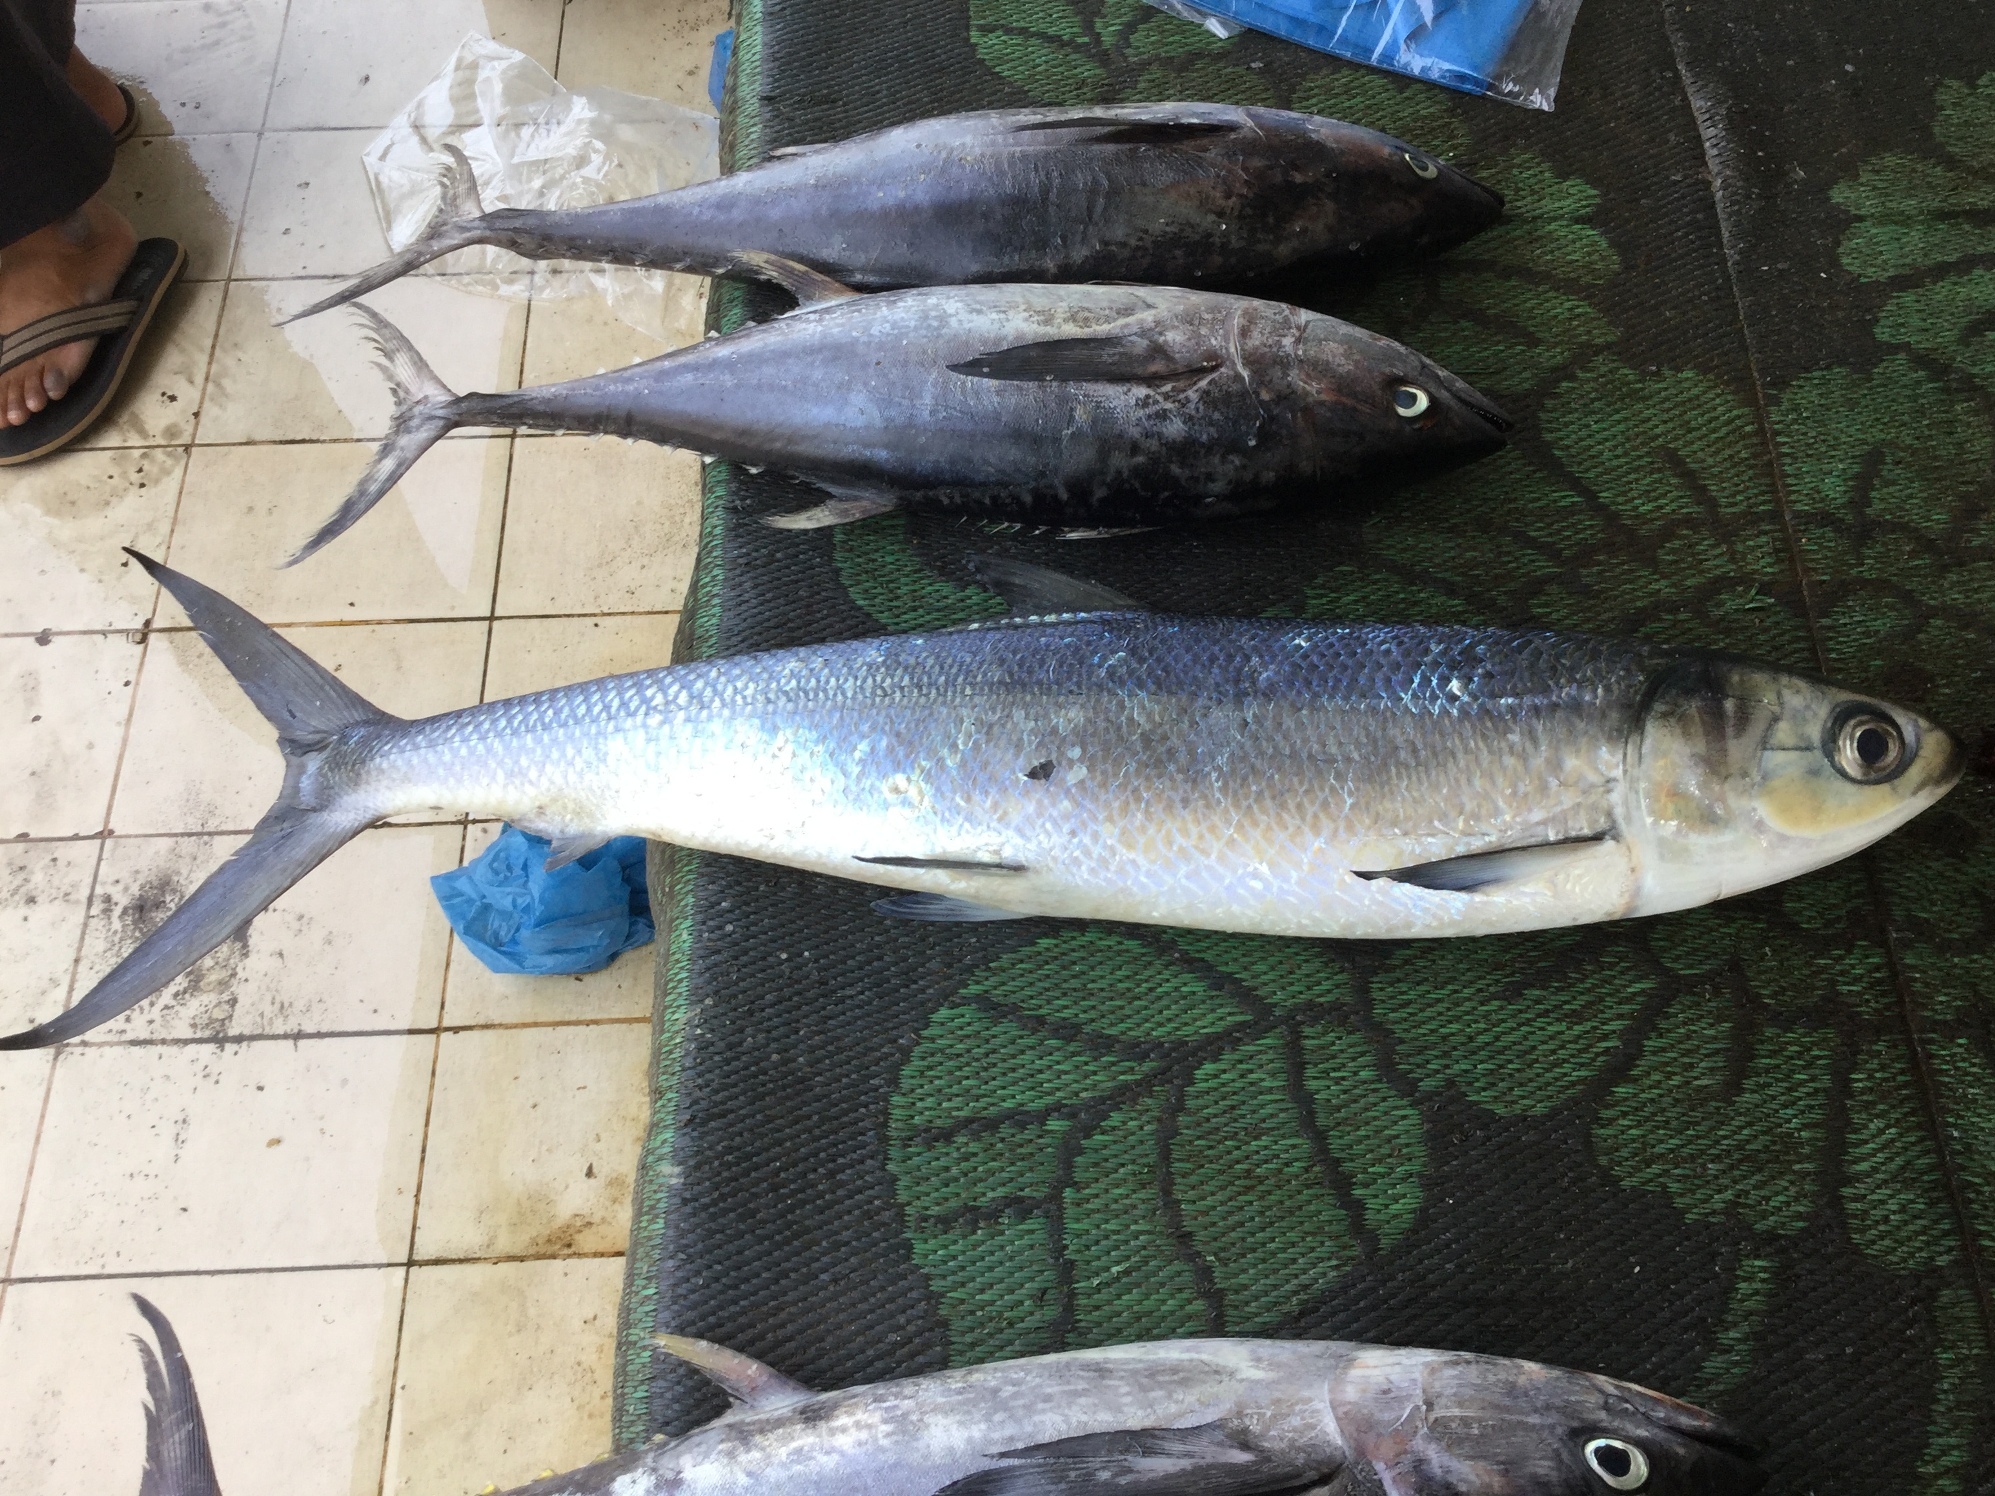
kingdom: Animalia
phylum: Chordata
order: Gonorynchiformes
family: Chanidae
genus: Chanos
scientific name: Chanos chanos
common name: Milkfish
